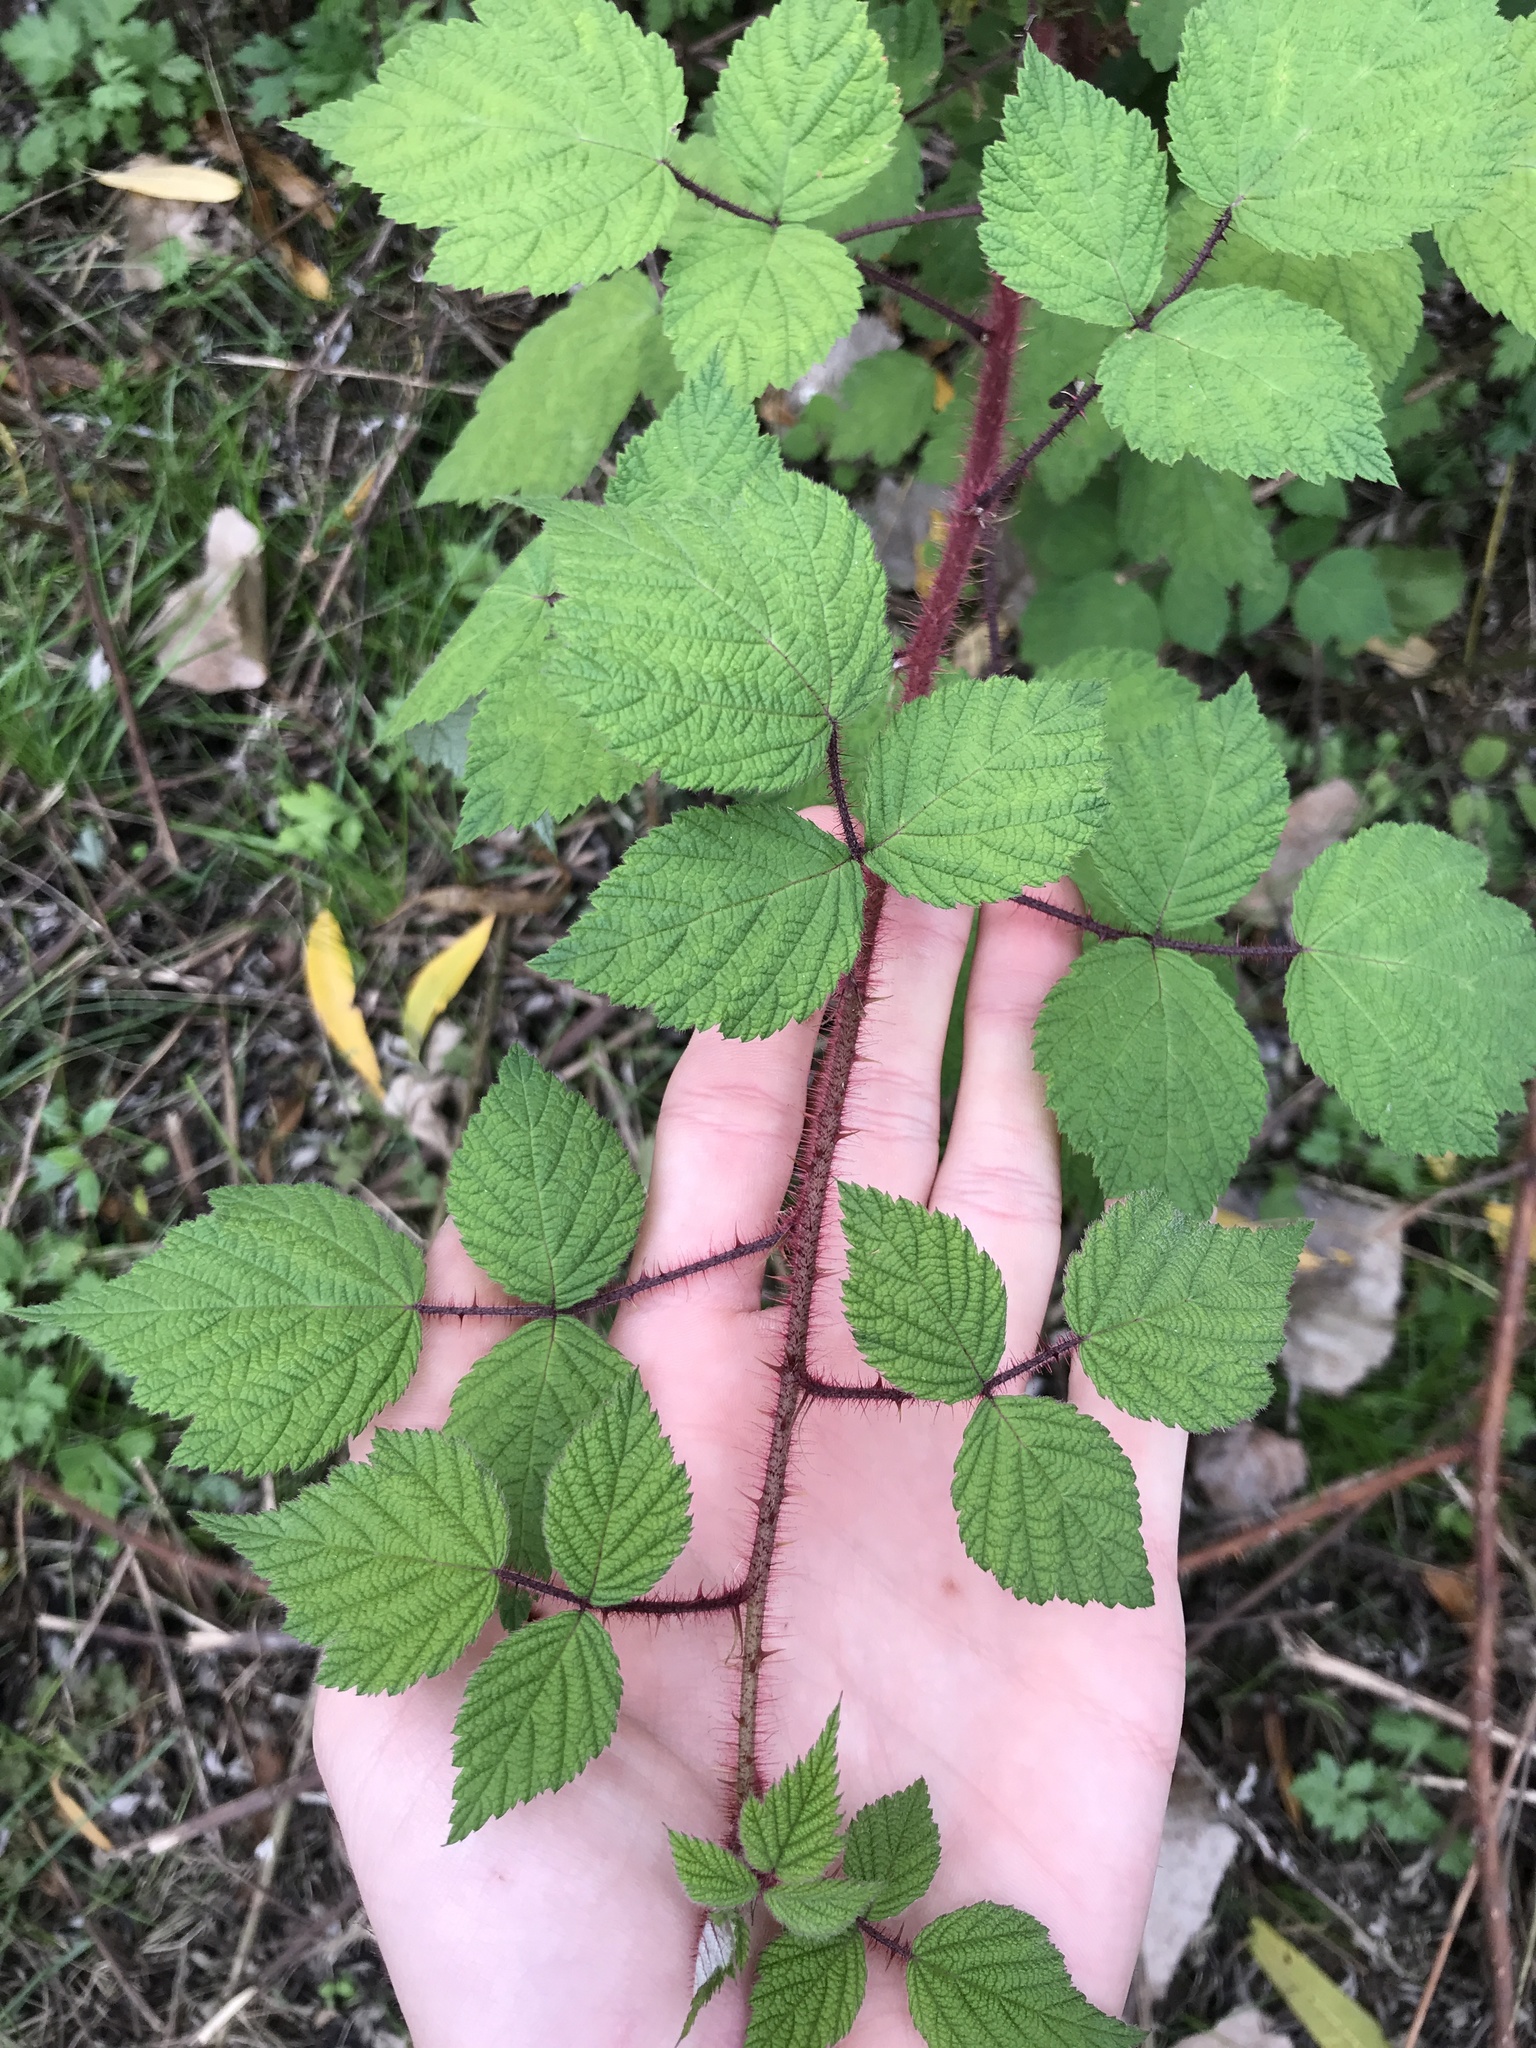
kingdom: Plantae
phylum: Tracheophyta
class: Magnoliopsida
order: Rosales
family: Rosaceae
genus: Rubus
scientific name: Rubus phoenicolasius
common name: Japanese wineberry
